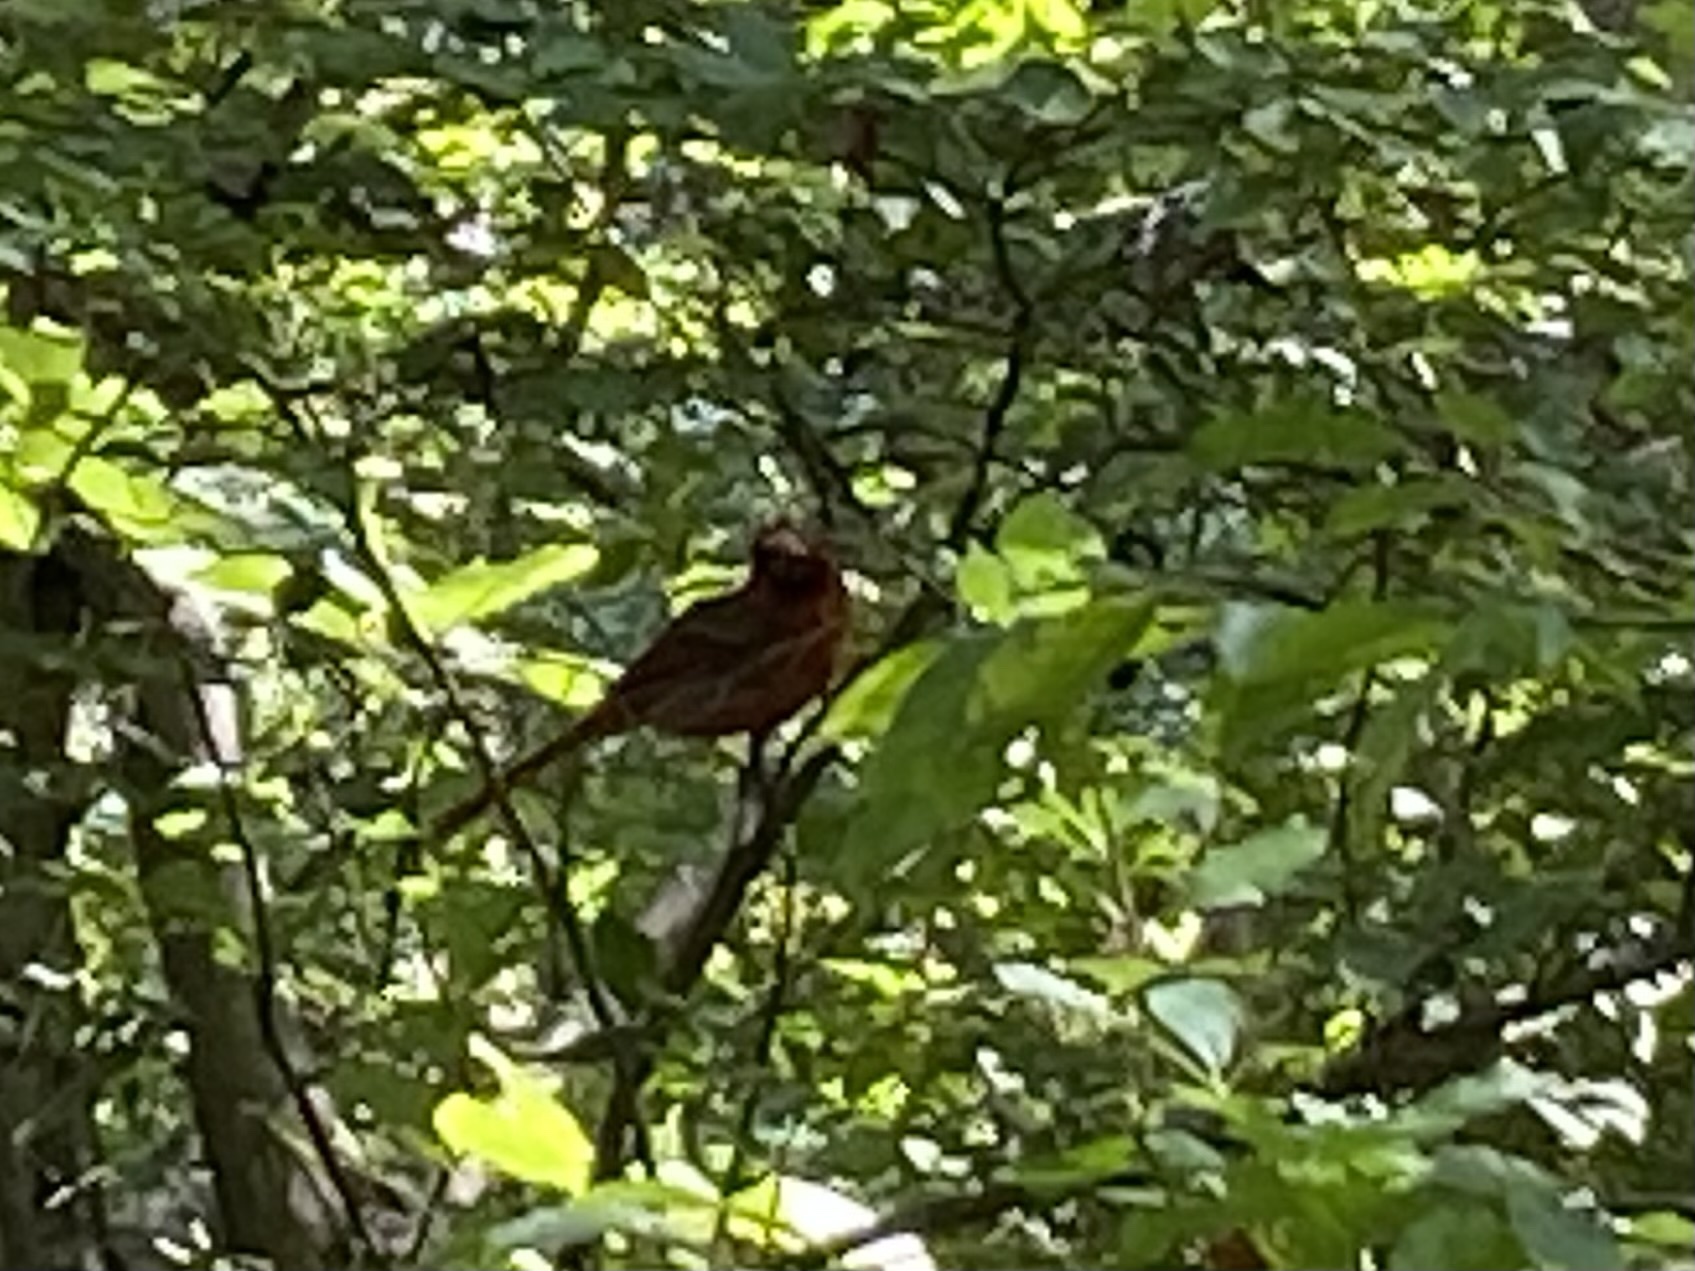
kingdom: Animalia
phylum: Chordata
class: Aves
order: Passeriformes
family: Cardinalidae
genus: Cardinalis
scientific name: Cardinalis cardinalis
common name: Northern cardinal
